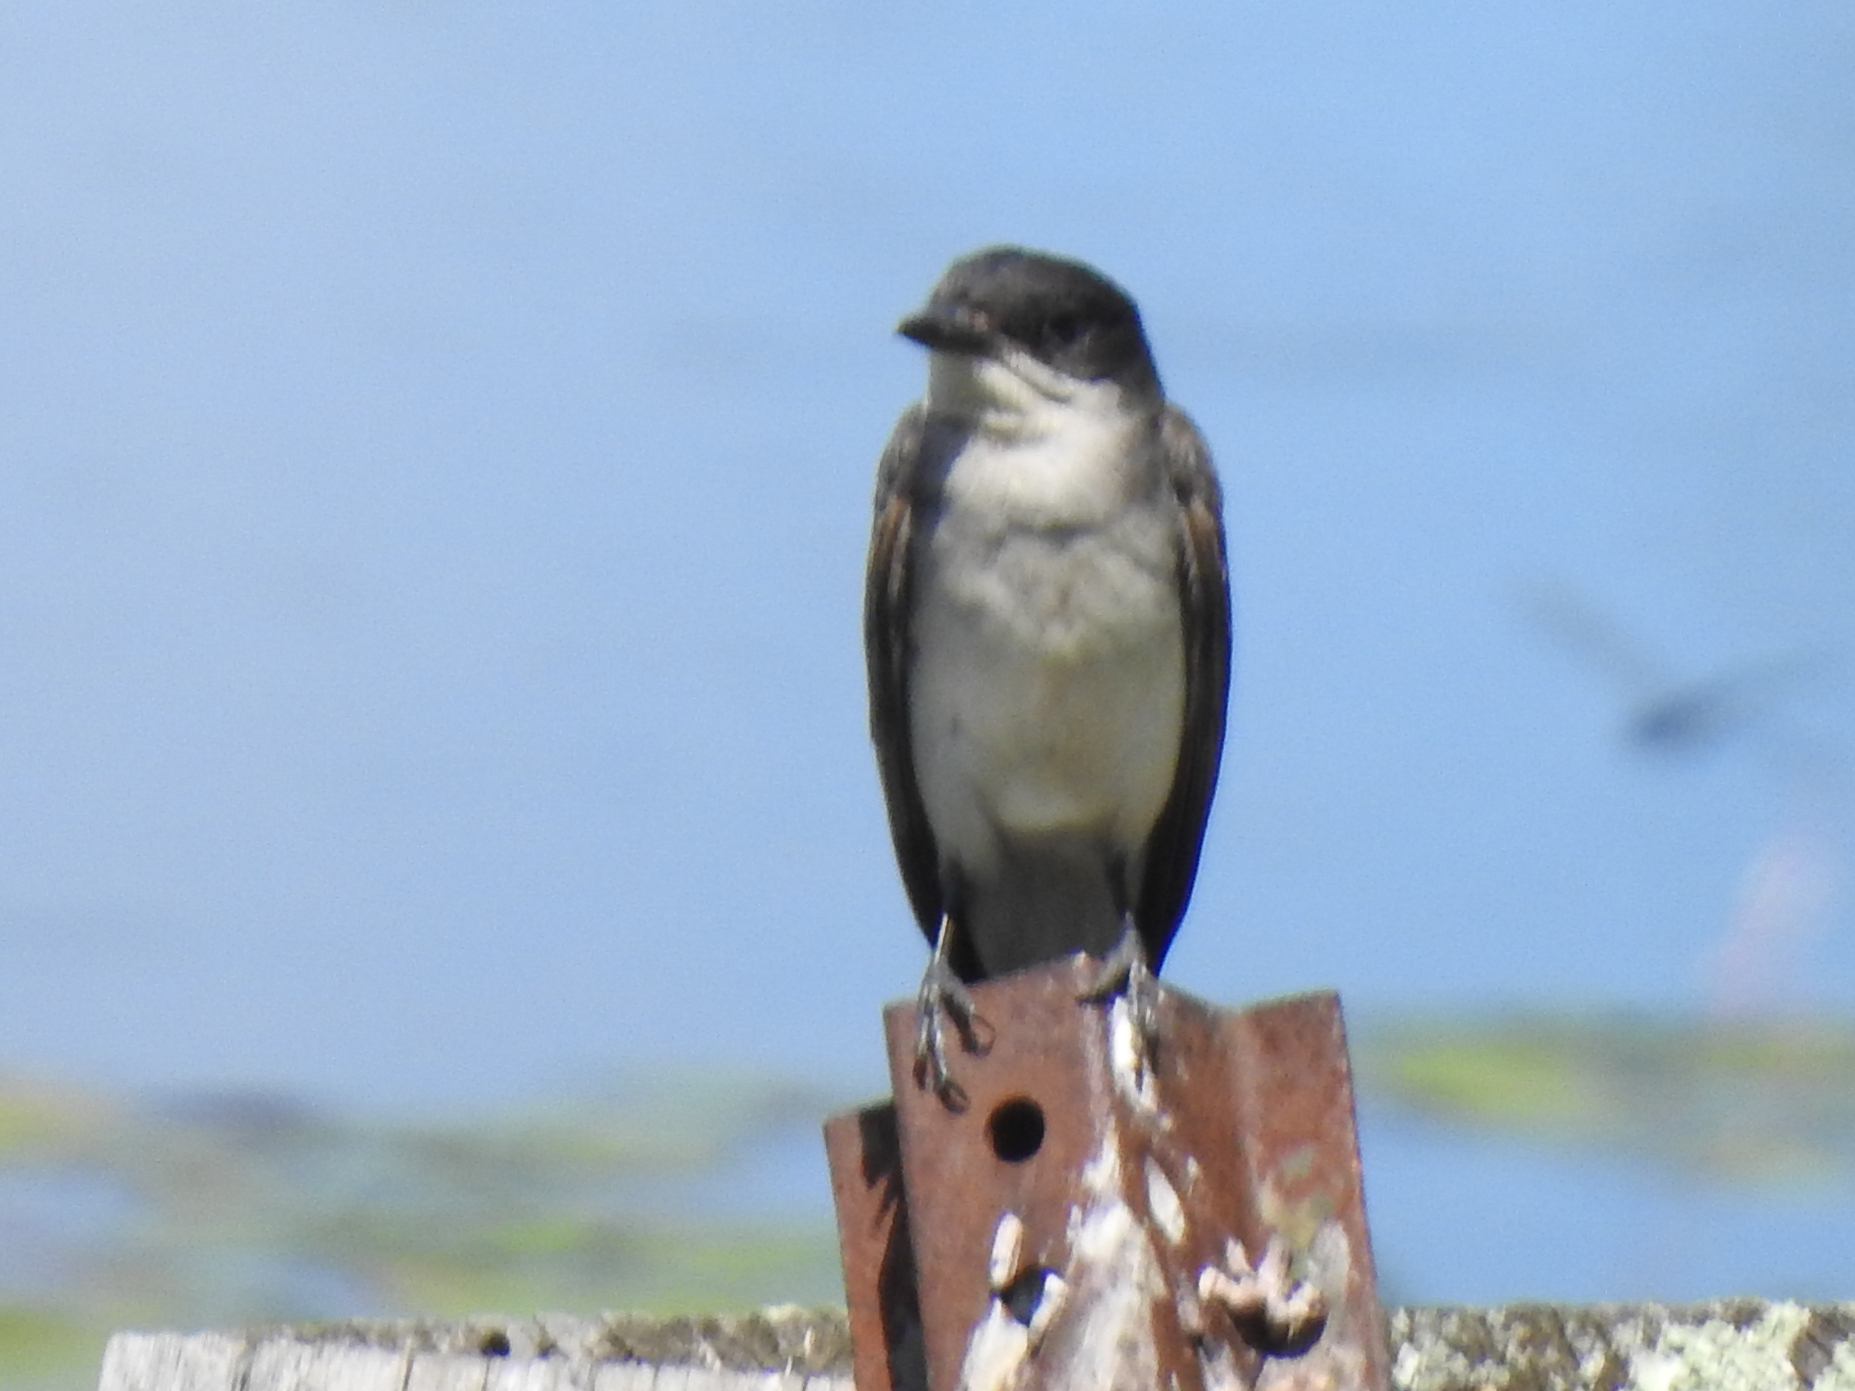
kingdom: Animalia
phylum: Chordata
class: Aves
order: Passeriformes
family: Tyrannidae
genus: Tyrannus
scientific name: Tyrannus tyrannus
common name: Eastern kingbird
